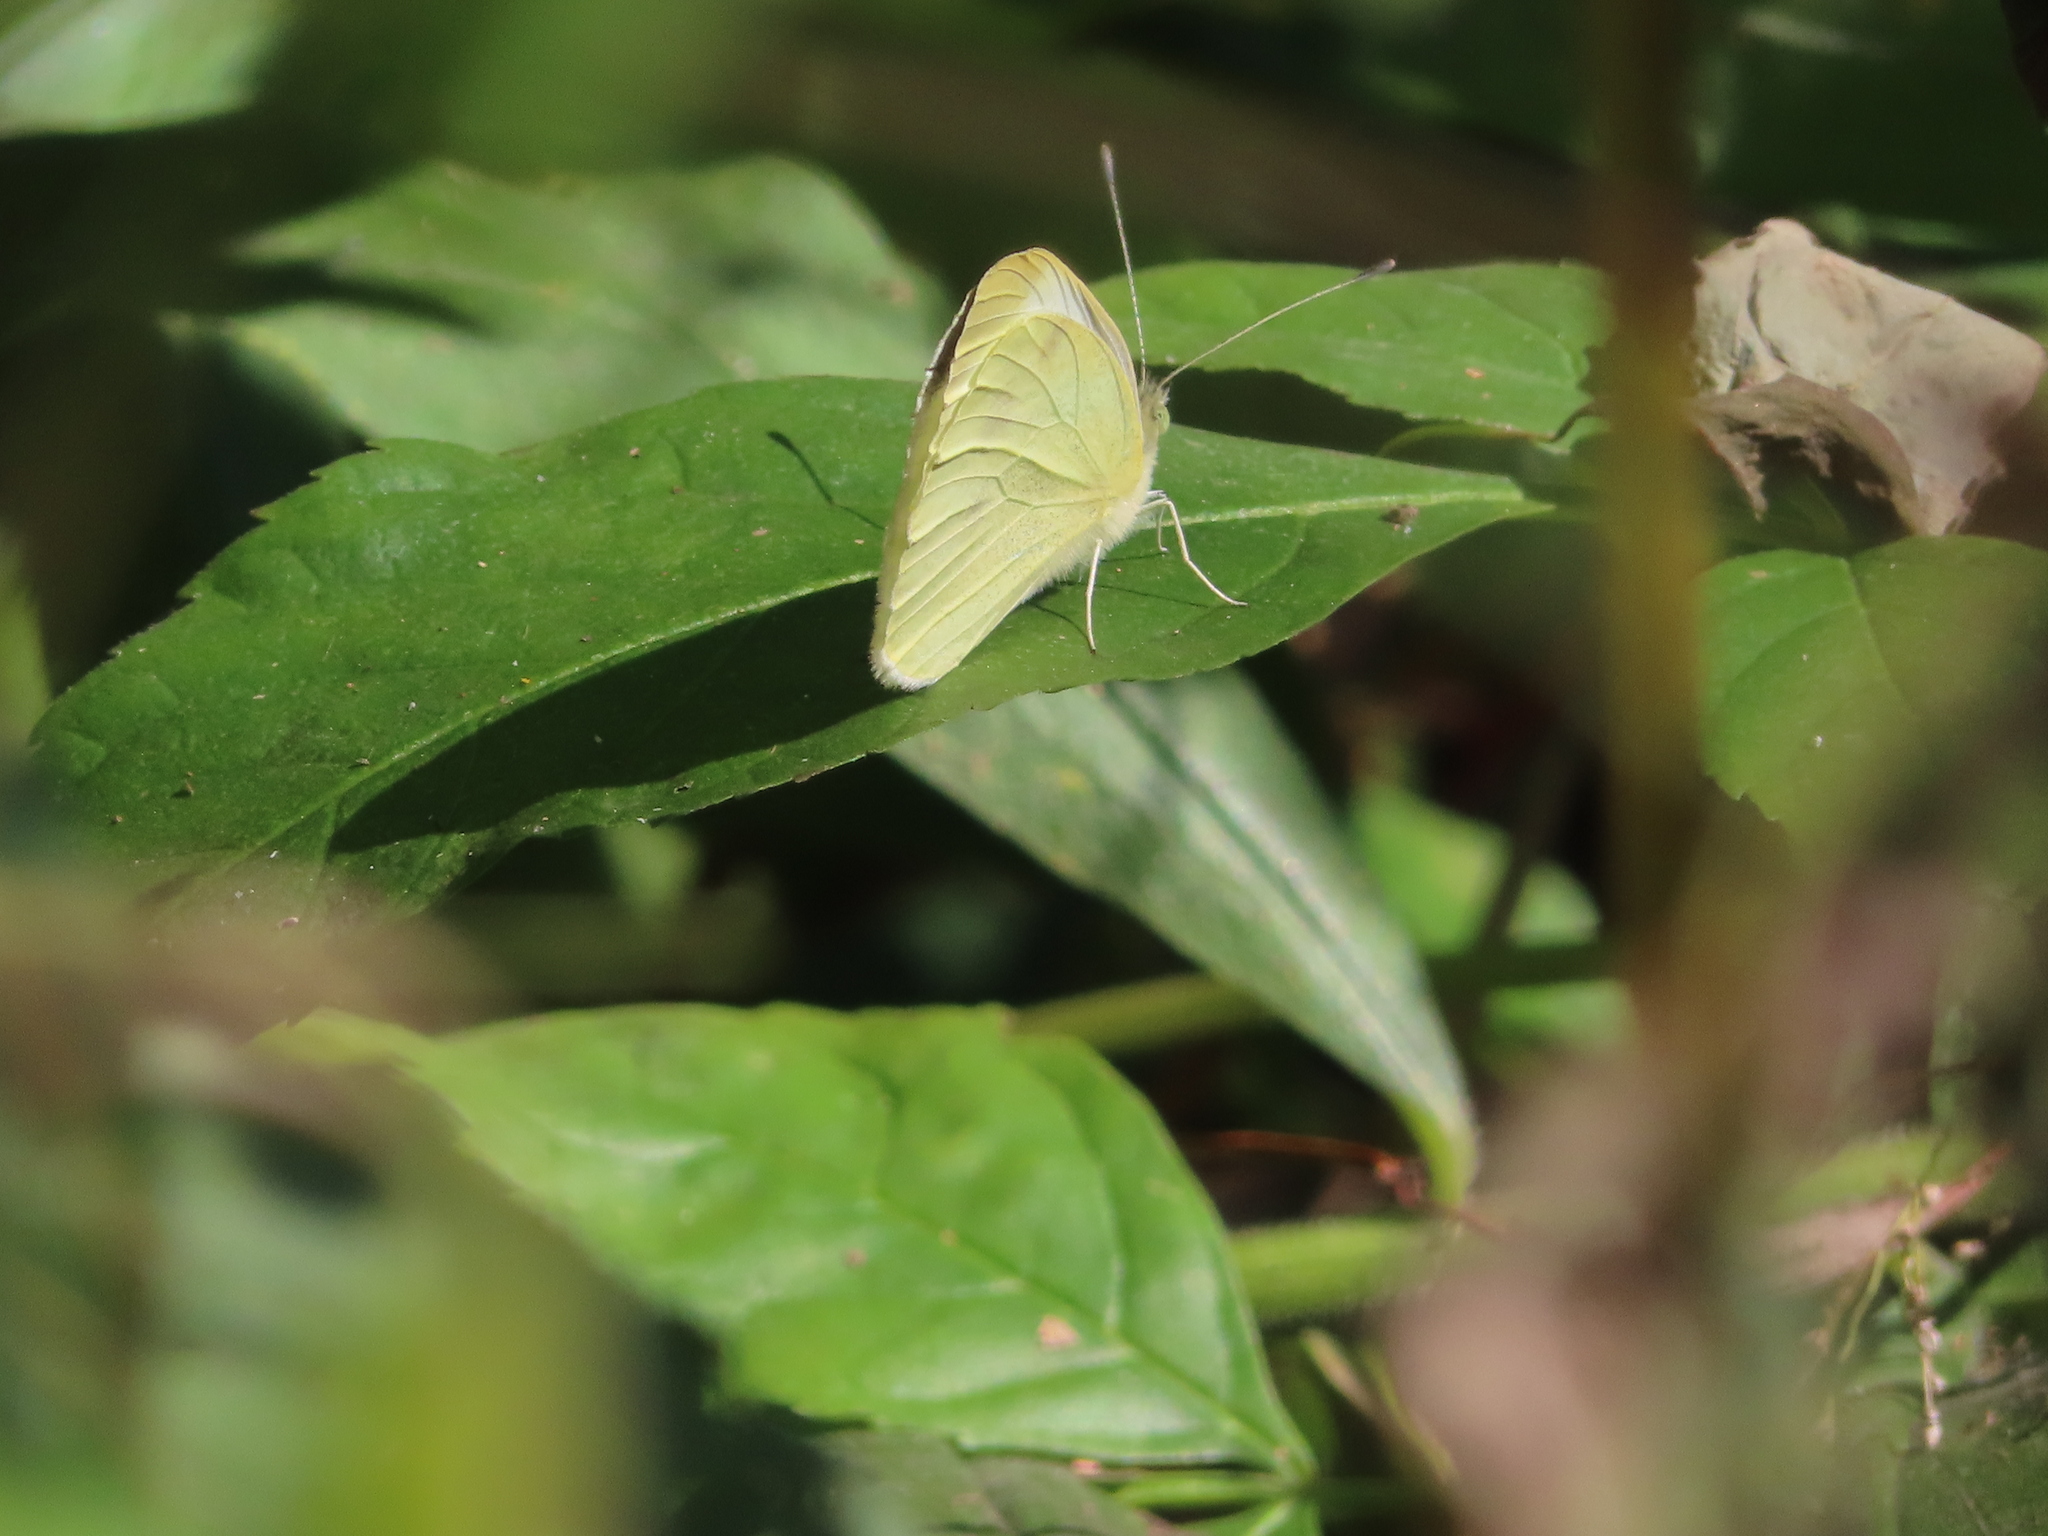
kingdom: Animalia
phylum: Arthropoda
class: Insecta
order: Lepidoptera
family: Pieridae
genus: Pieris
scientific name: Pieris rapae
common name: Small white
